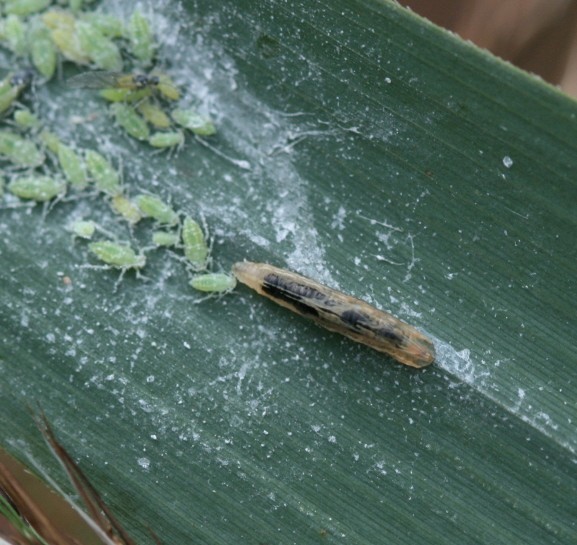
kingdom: Animalia
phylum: Arthropoda
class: Insecta
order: Diptera
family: Syrphidae
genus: Baccha
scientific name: Baccha elongata
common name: Common dainty
